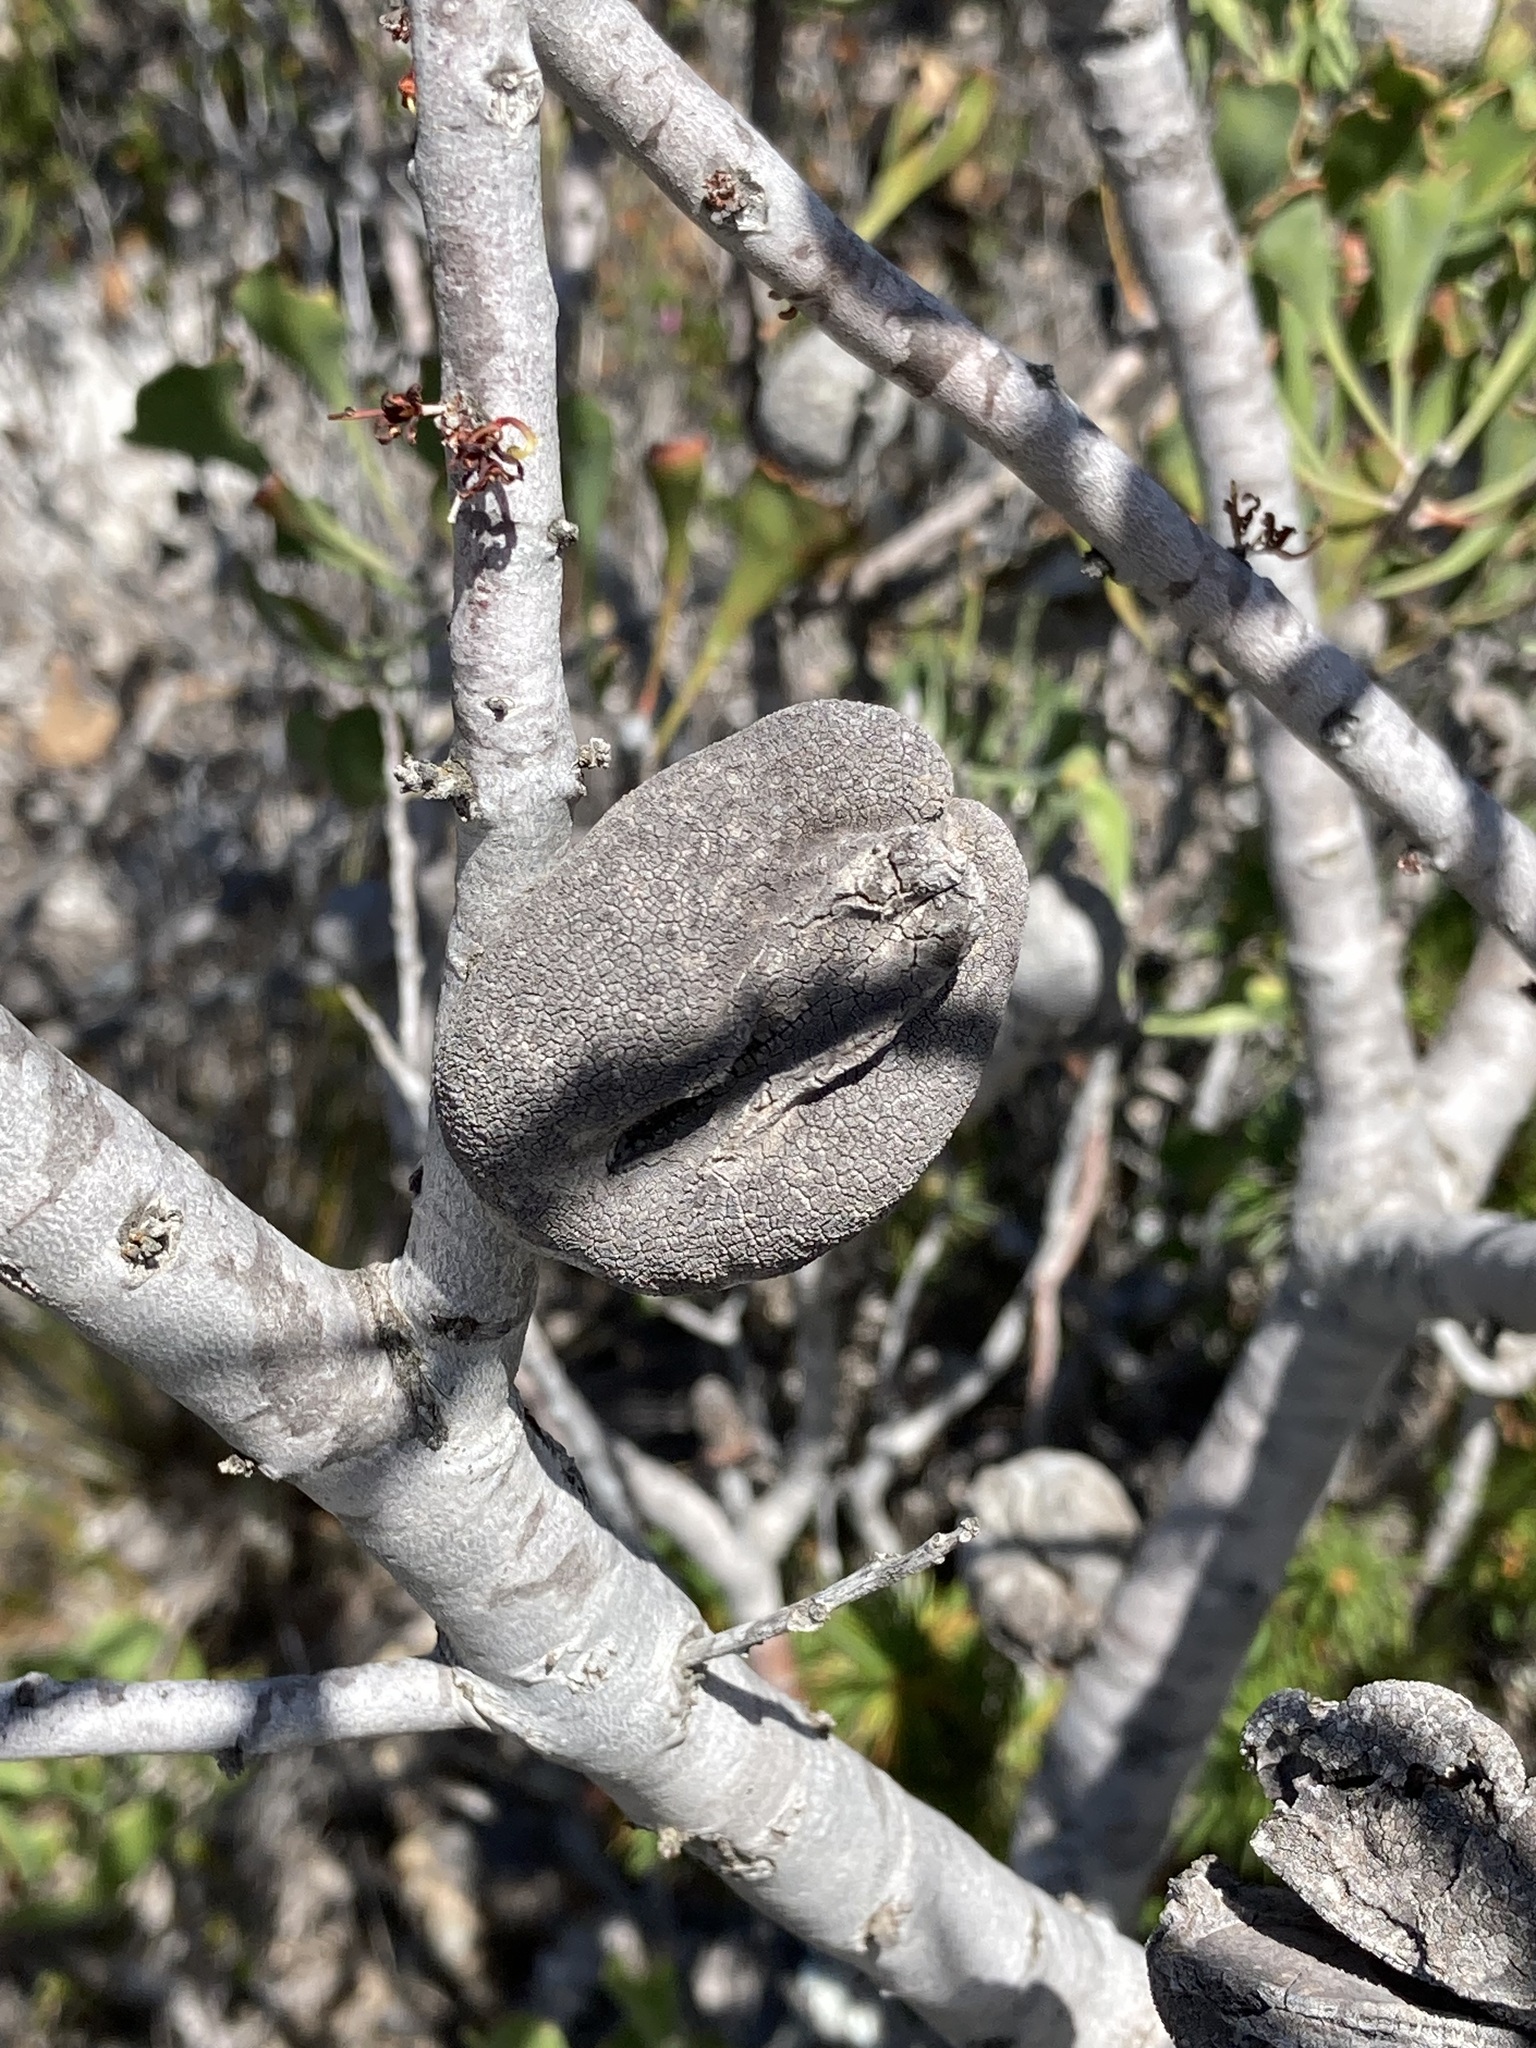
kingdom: Plantae
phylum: Tracheophyta
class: Magnoliopsida
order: Proteales
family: Proteaceae
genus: Hakea
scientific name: Hakea pandanicarpa
